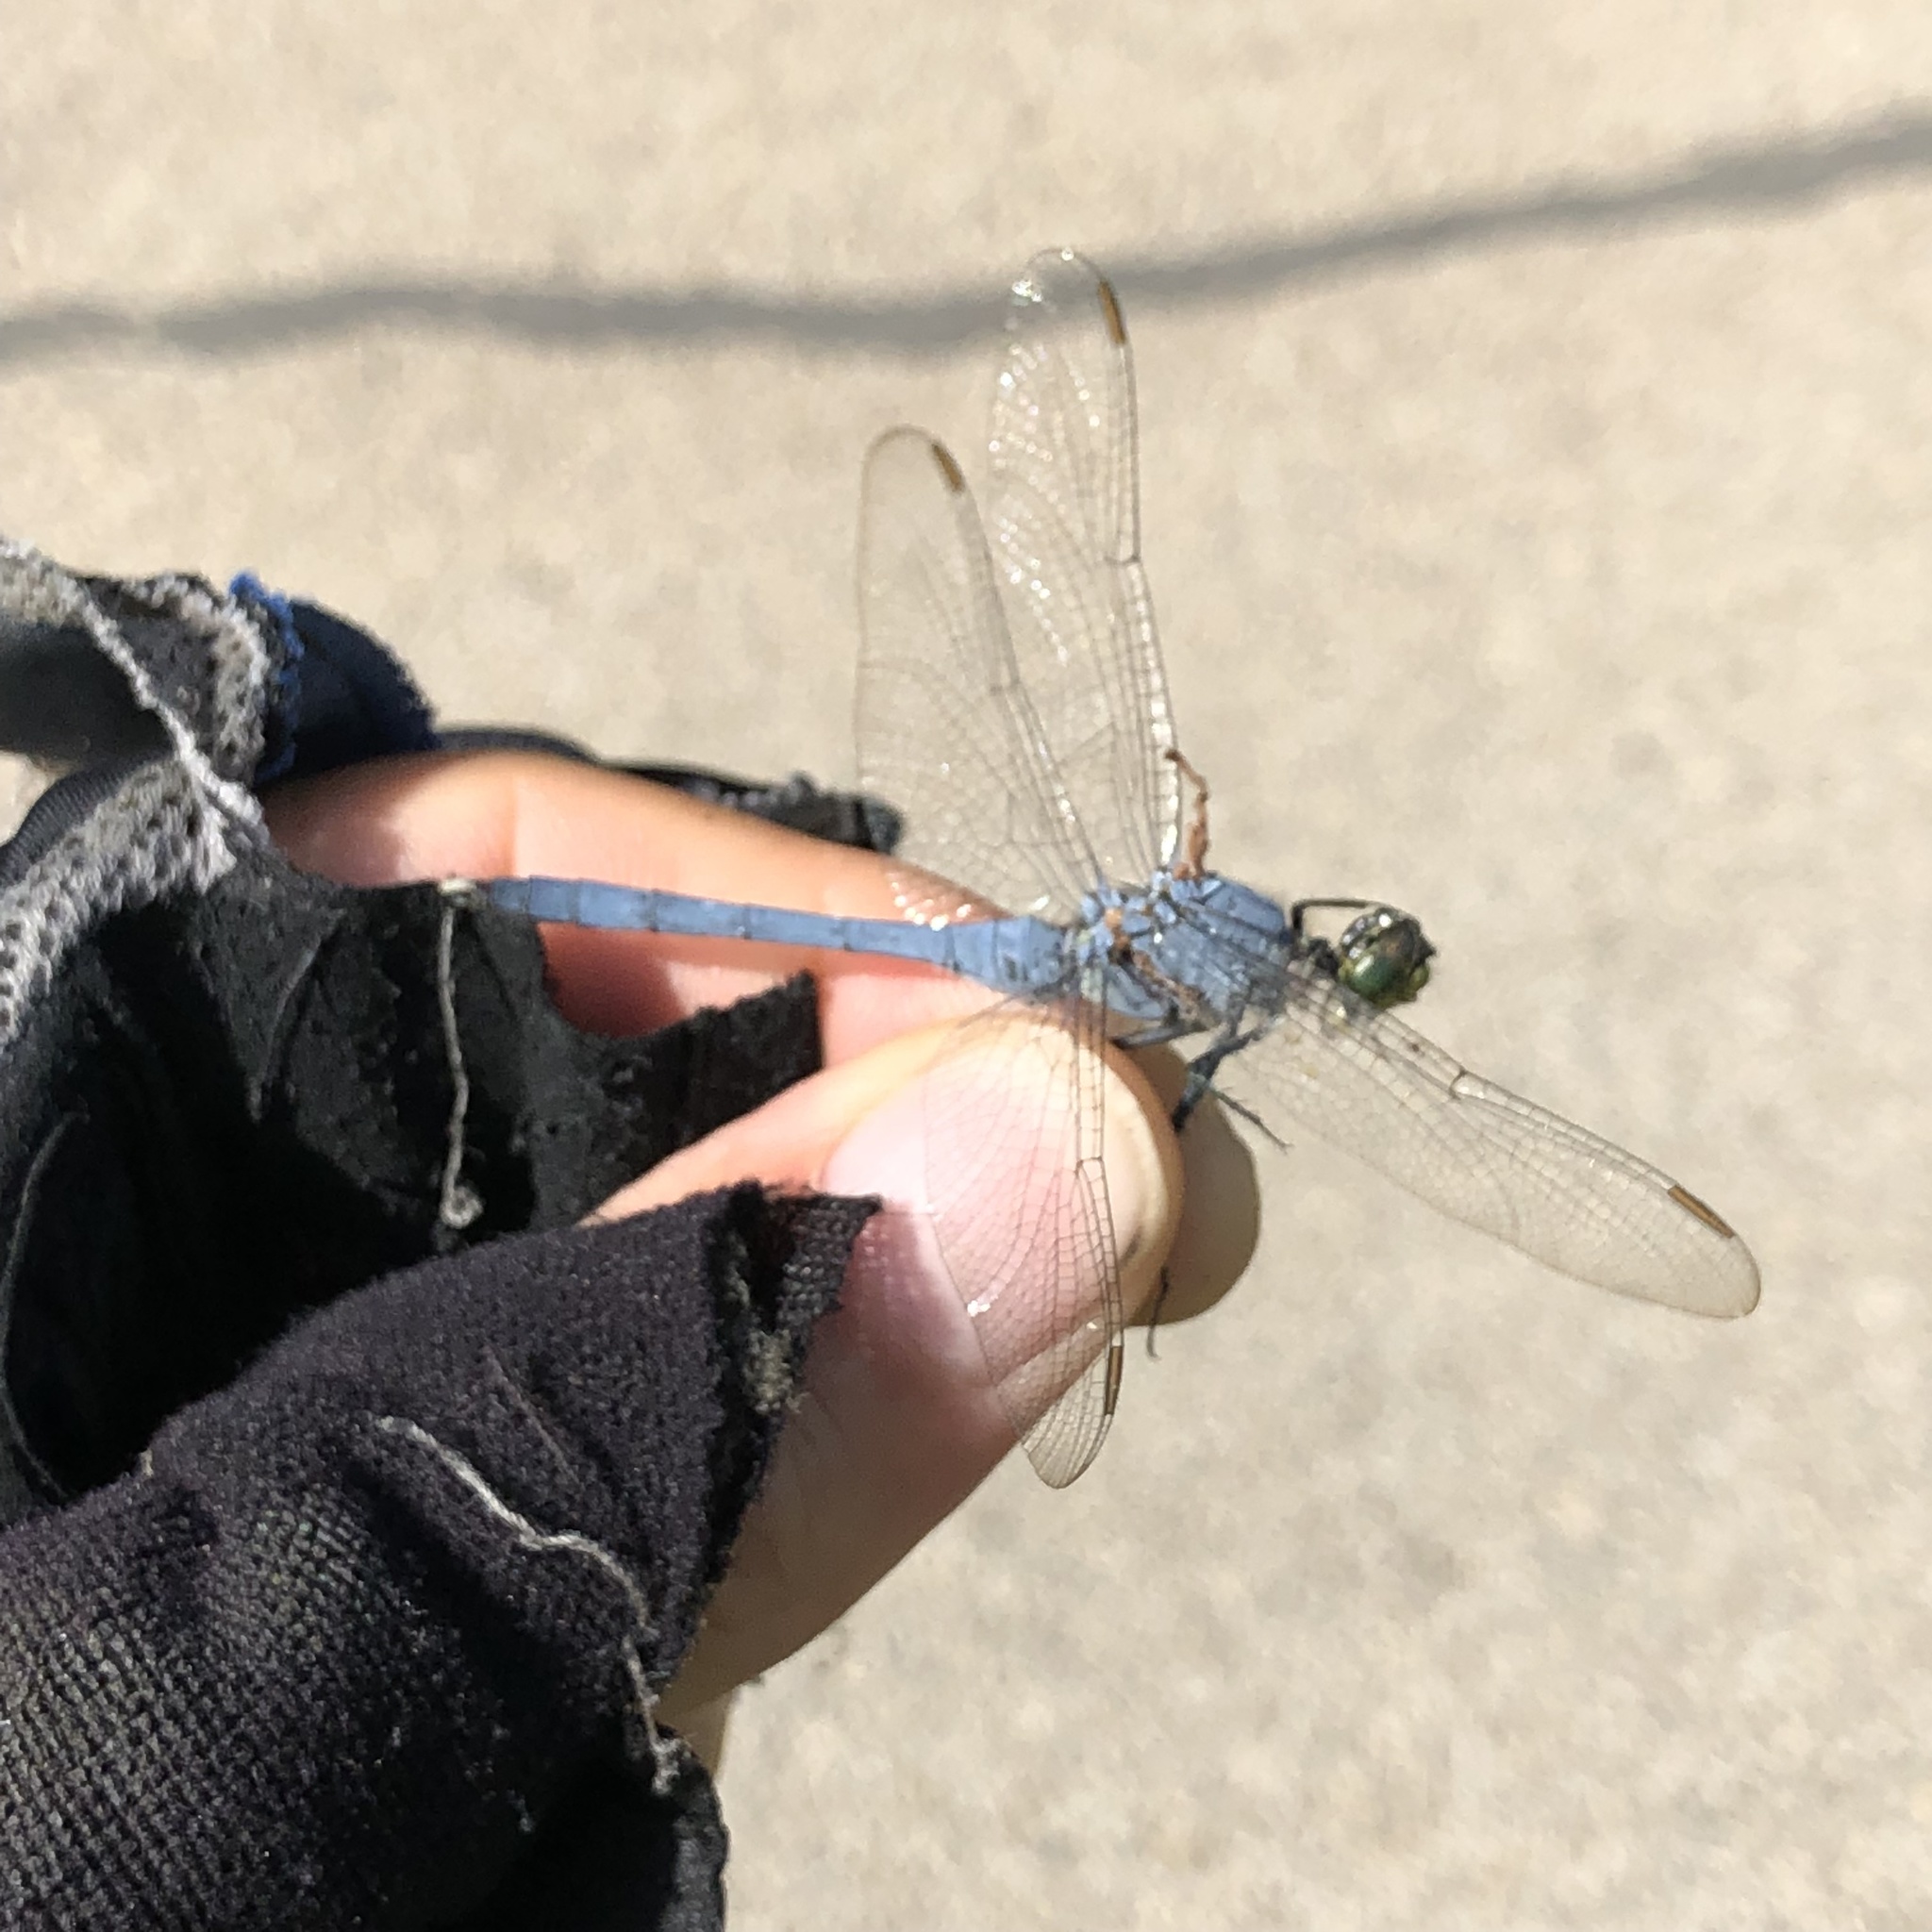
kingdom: Animalia
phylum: Arthropoda
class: Insecta
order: Odonata
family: Libellulidae
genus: Erythemis
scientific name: Erythemis simplicicollis
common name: Eastern pondhawk
